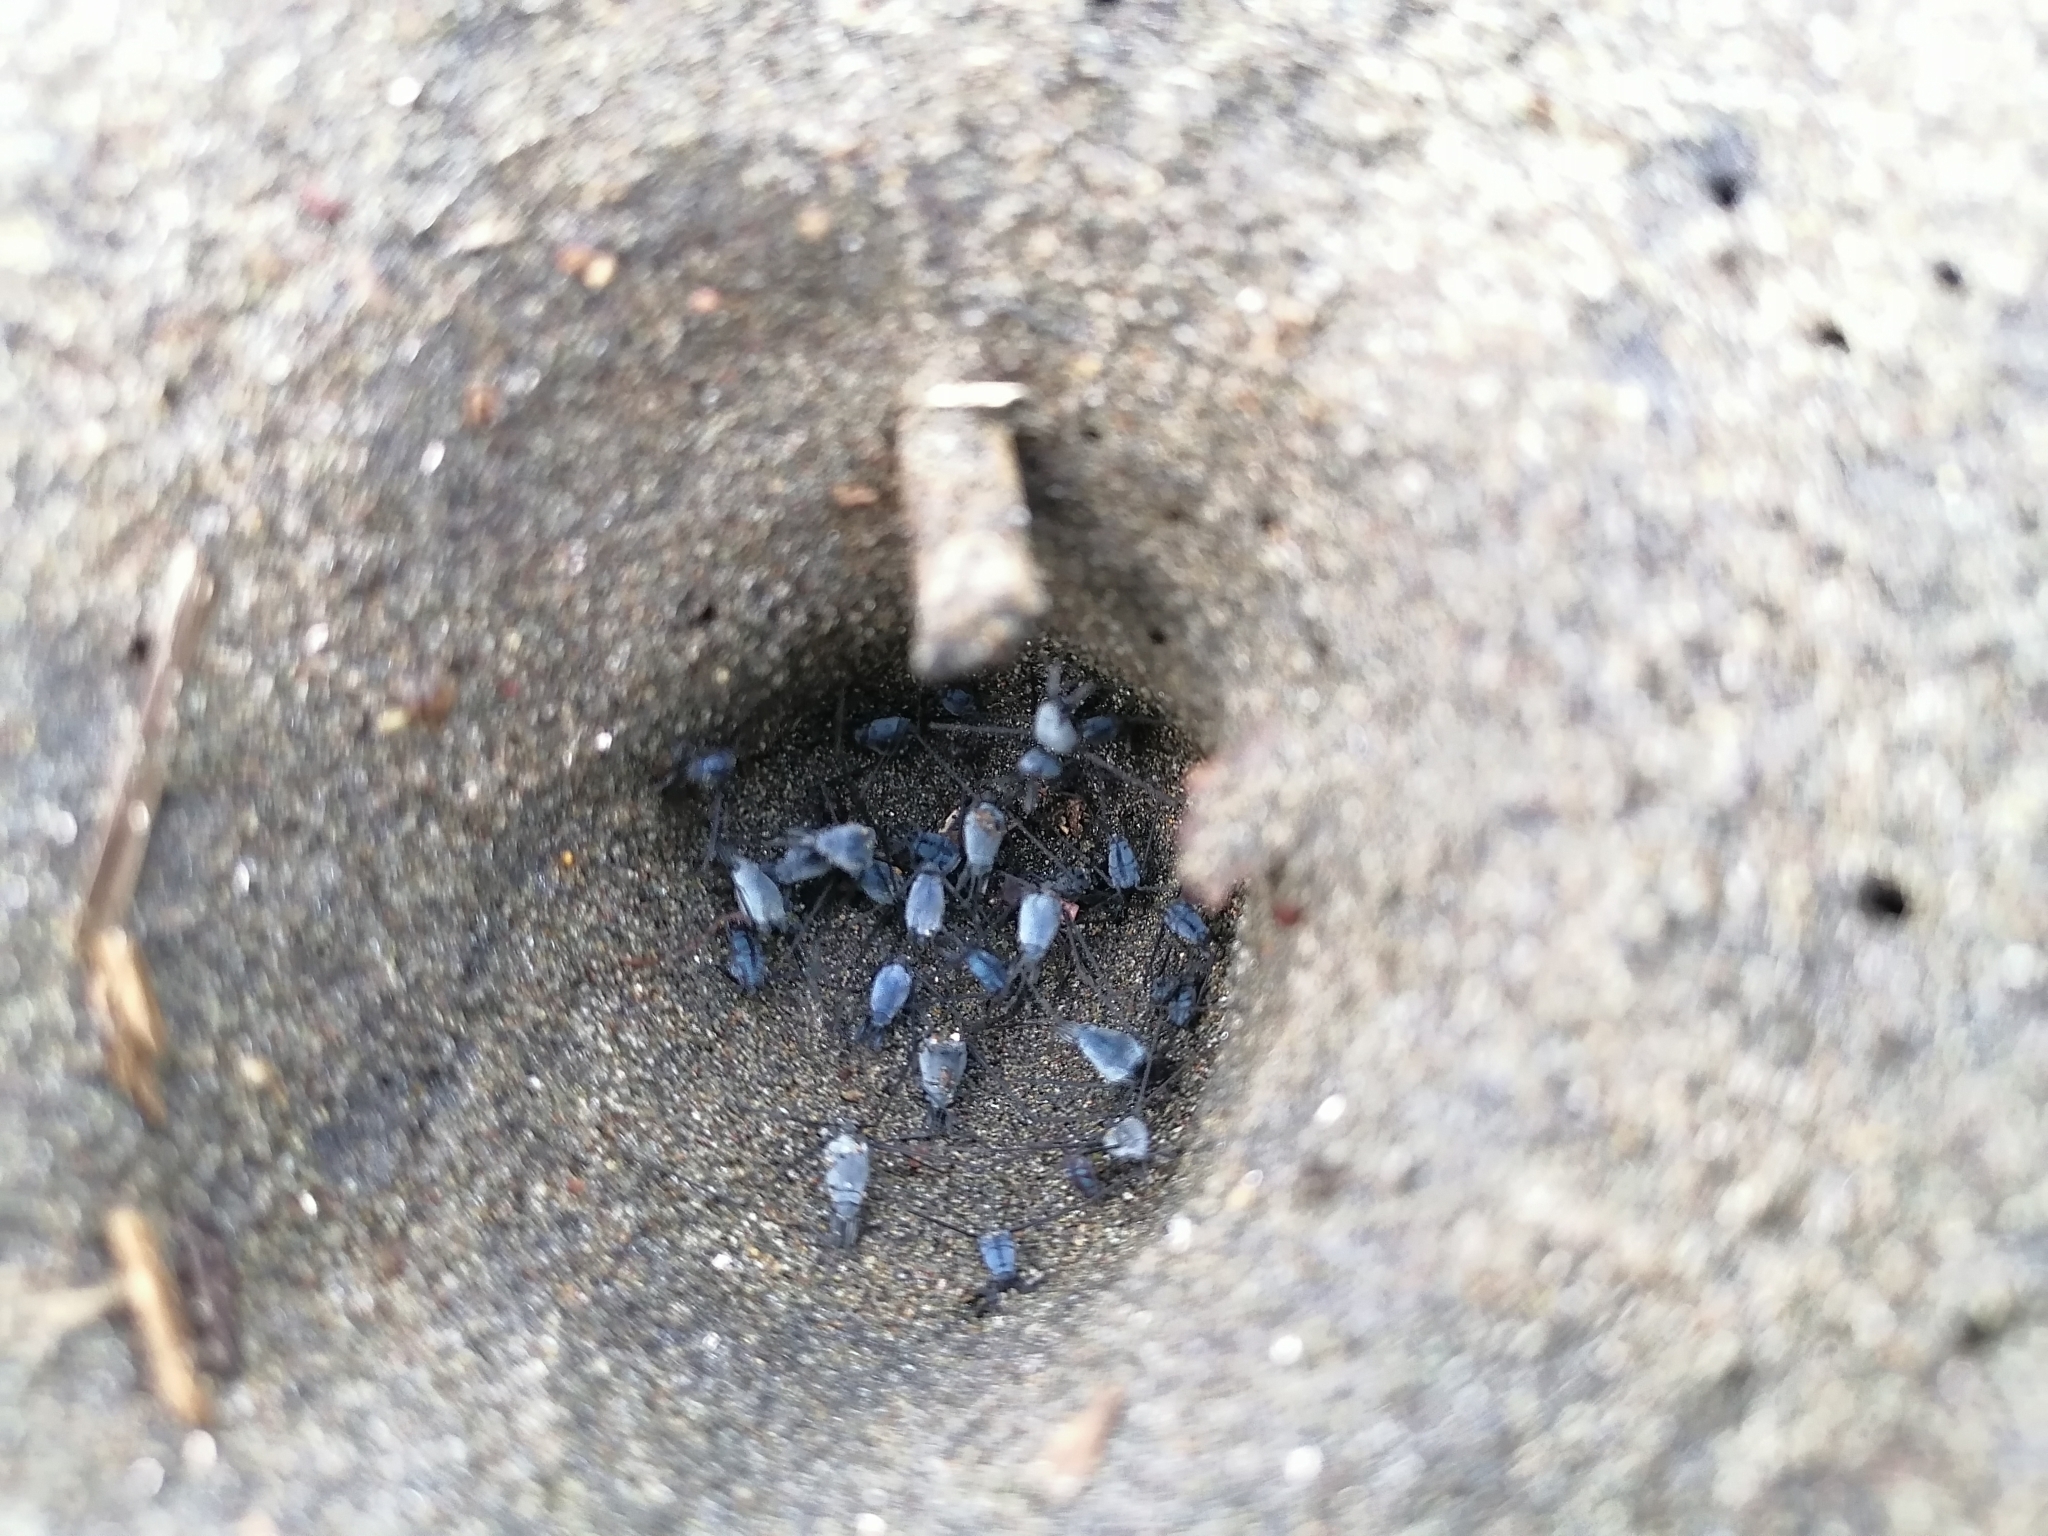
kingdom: Animalia
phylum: Arthropoda
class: Insecta
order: Hemiptera
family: Gerridae
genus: Halobates
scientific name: Halobates
